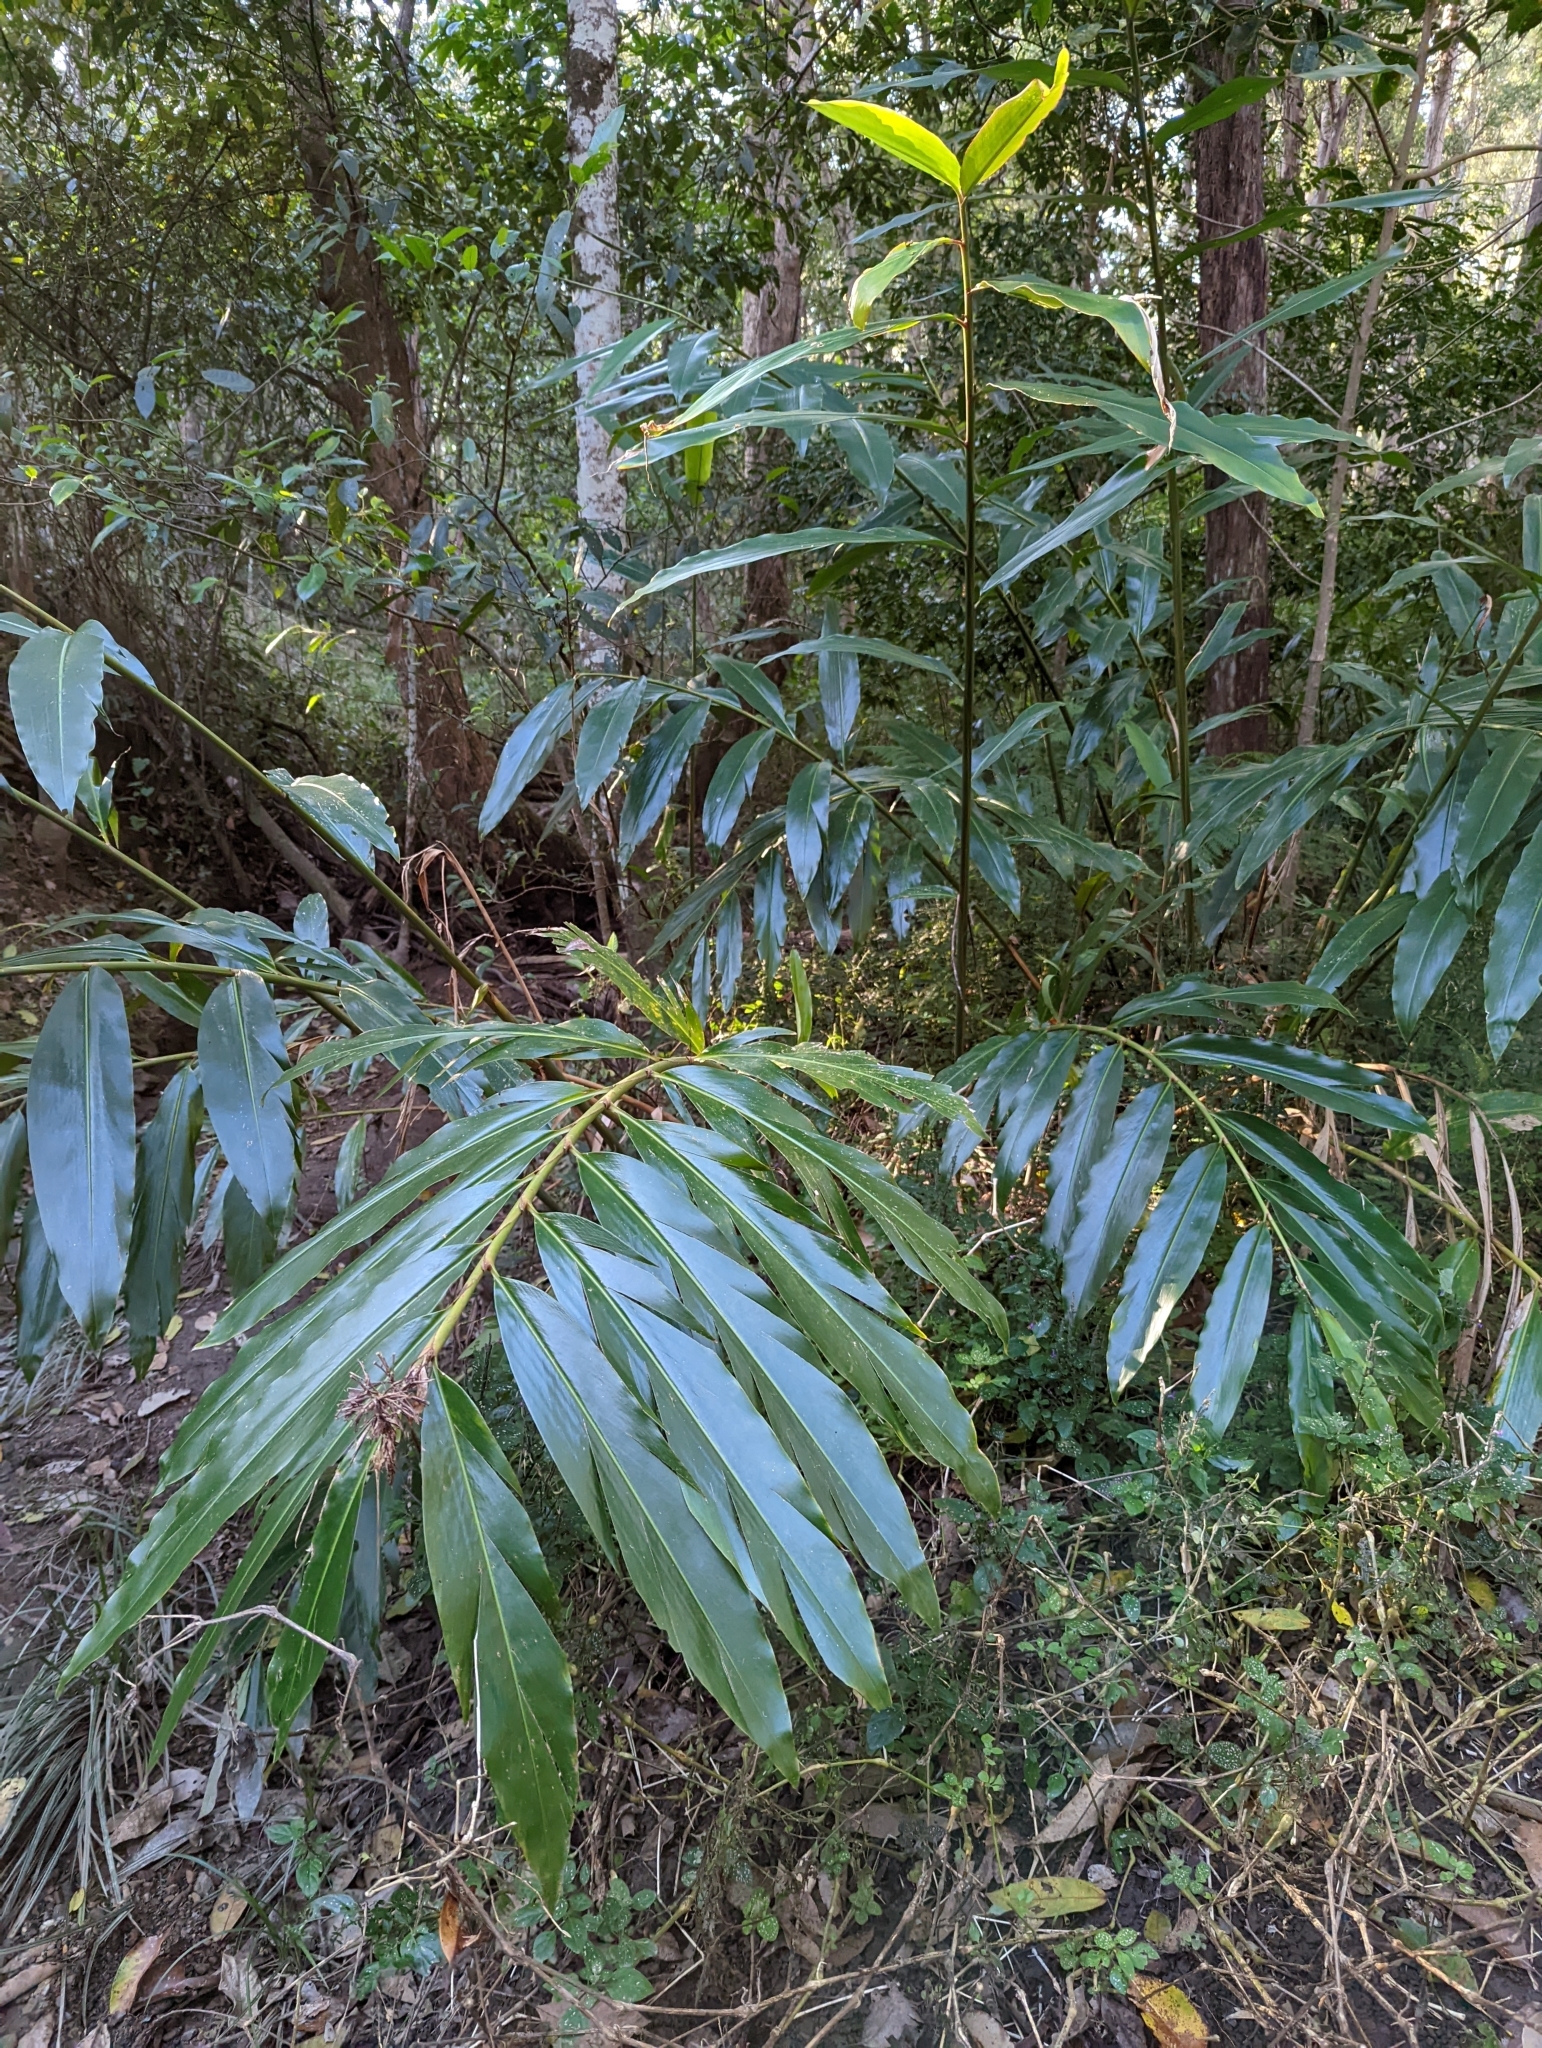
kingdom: Plantae
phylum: Tracheophyta
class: Liliopsida
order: Zingiberales
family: Zingiberaceae
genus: Alpinia
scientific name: Alpinia caerulea
